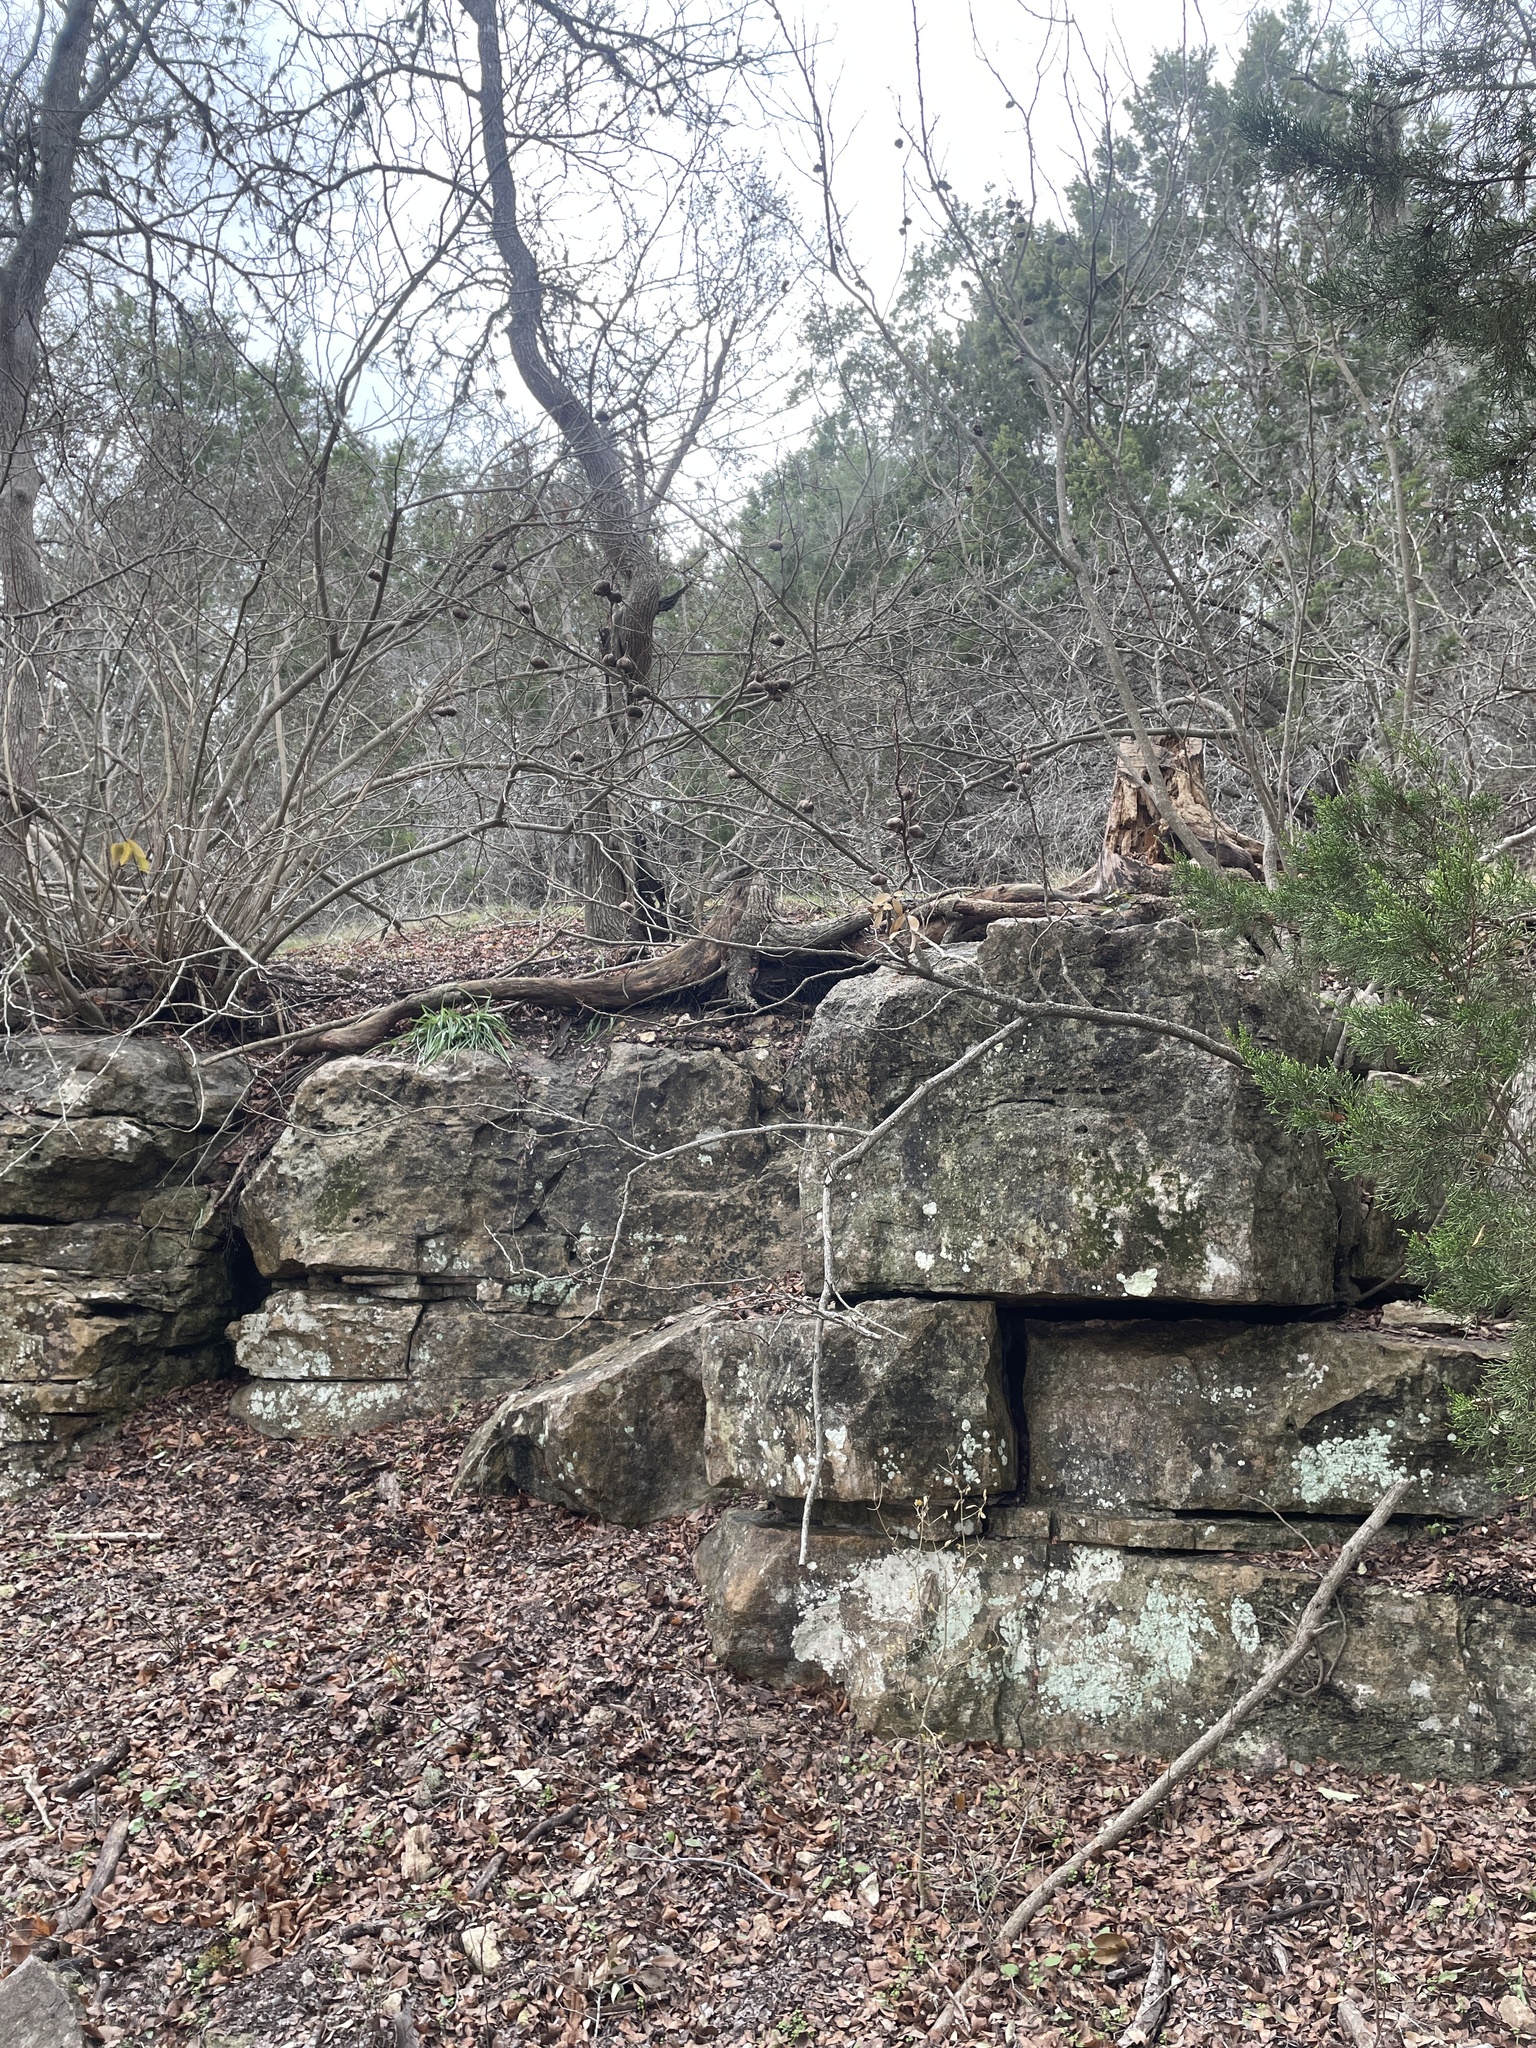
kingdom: Plantae
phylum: Tracheophyta
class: Magnoliopsida
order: Sapindales
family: Sapindaceae
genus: Ungnadia
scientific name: Ungnadia speciosa
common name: Texas-buckeye
